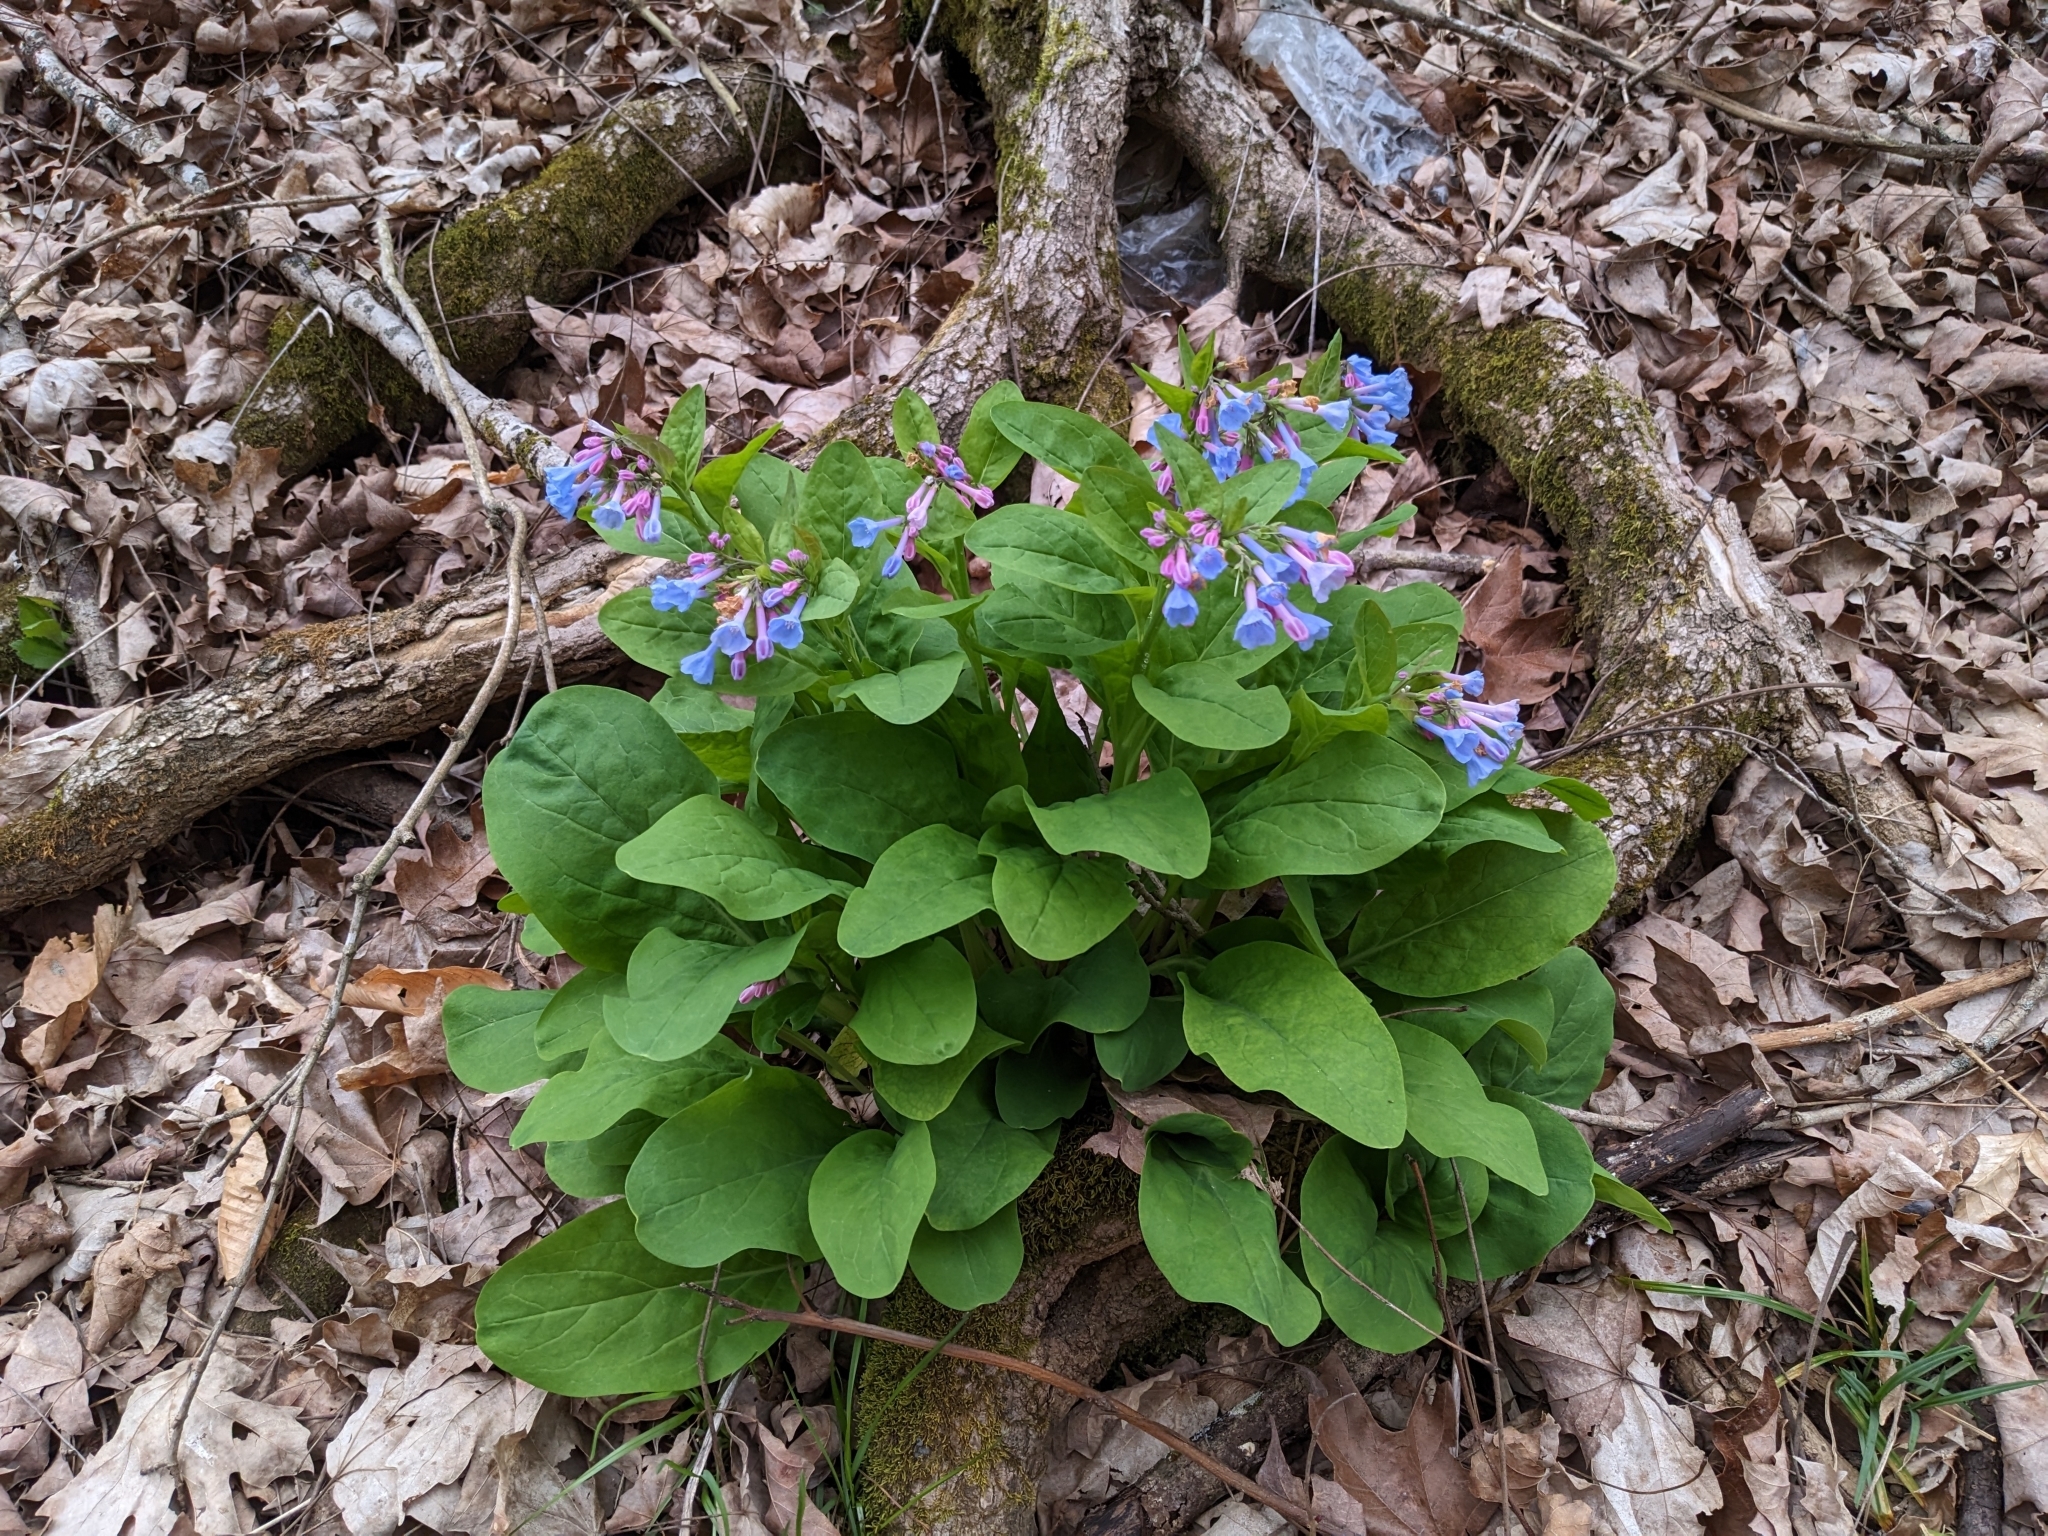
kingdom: Plantae
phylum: Tracheophyta
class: Magnoliopsida
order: Boraginales
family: Boraginaceae
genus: Mertensia
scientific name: Mertensia virginica
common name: Virginia bluebells
